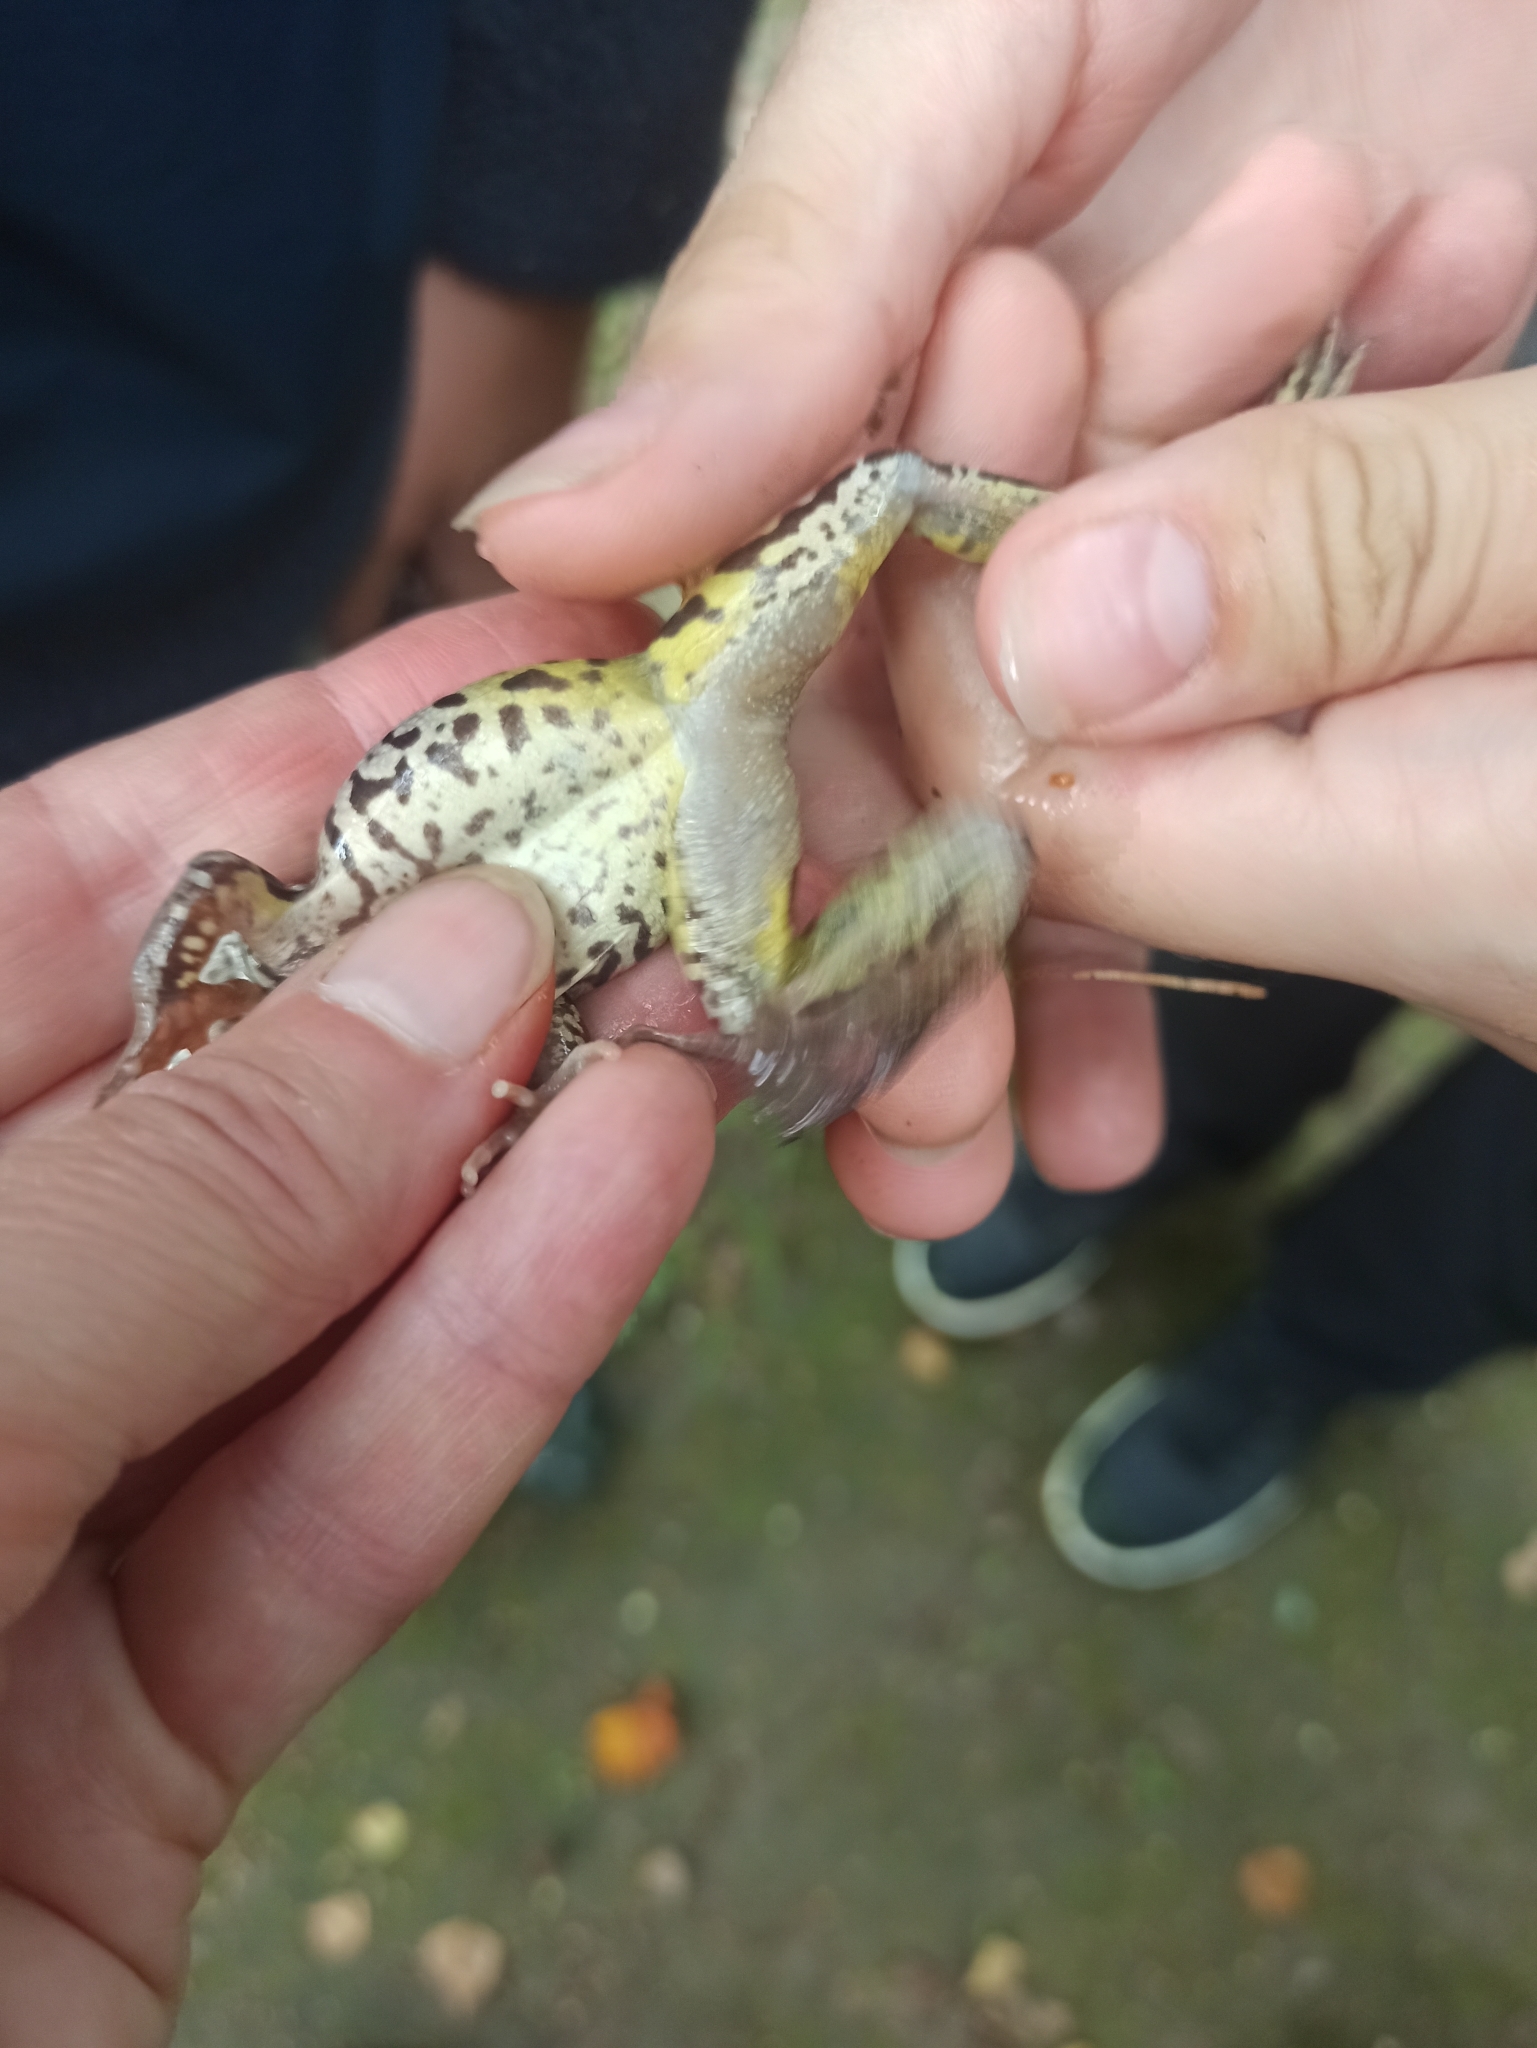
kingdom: Animalia
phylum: Chordata
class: Amphibia
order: Anura
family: Ranidae
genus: Rana
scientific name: Rana temporaria
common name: Common frog
